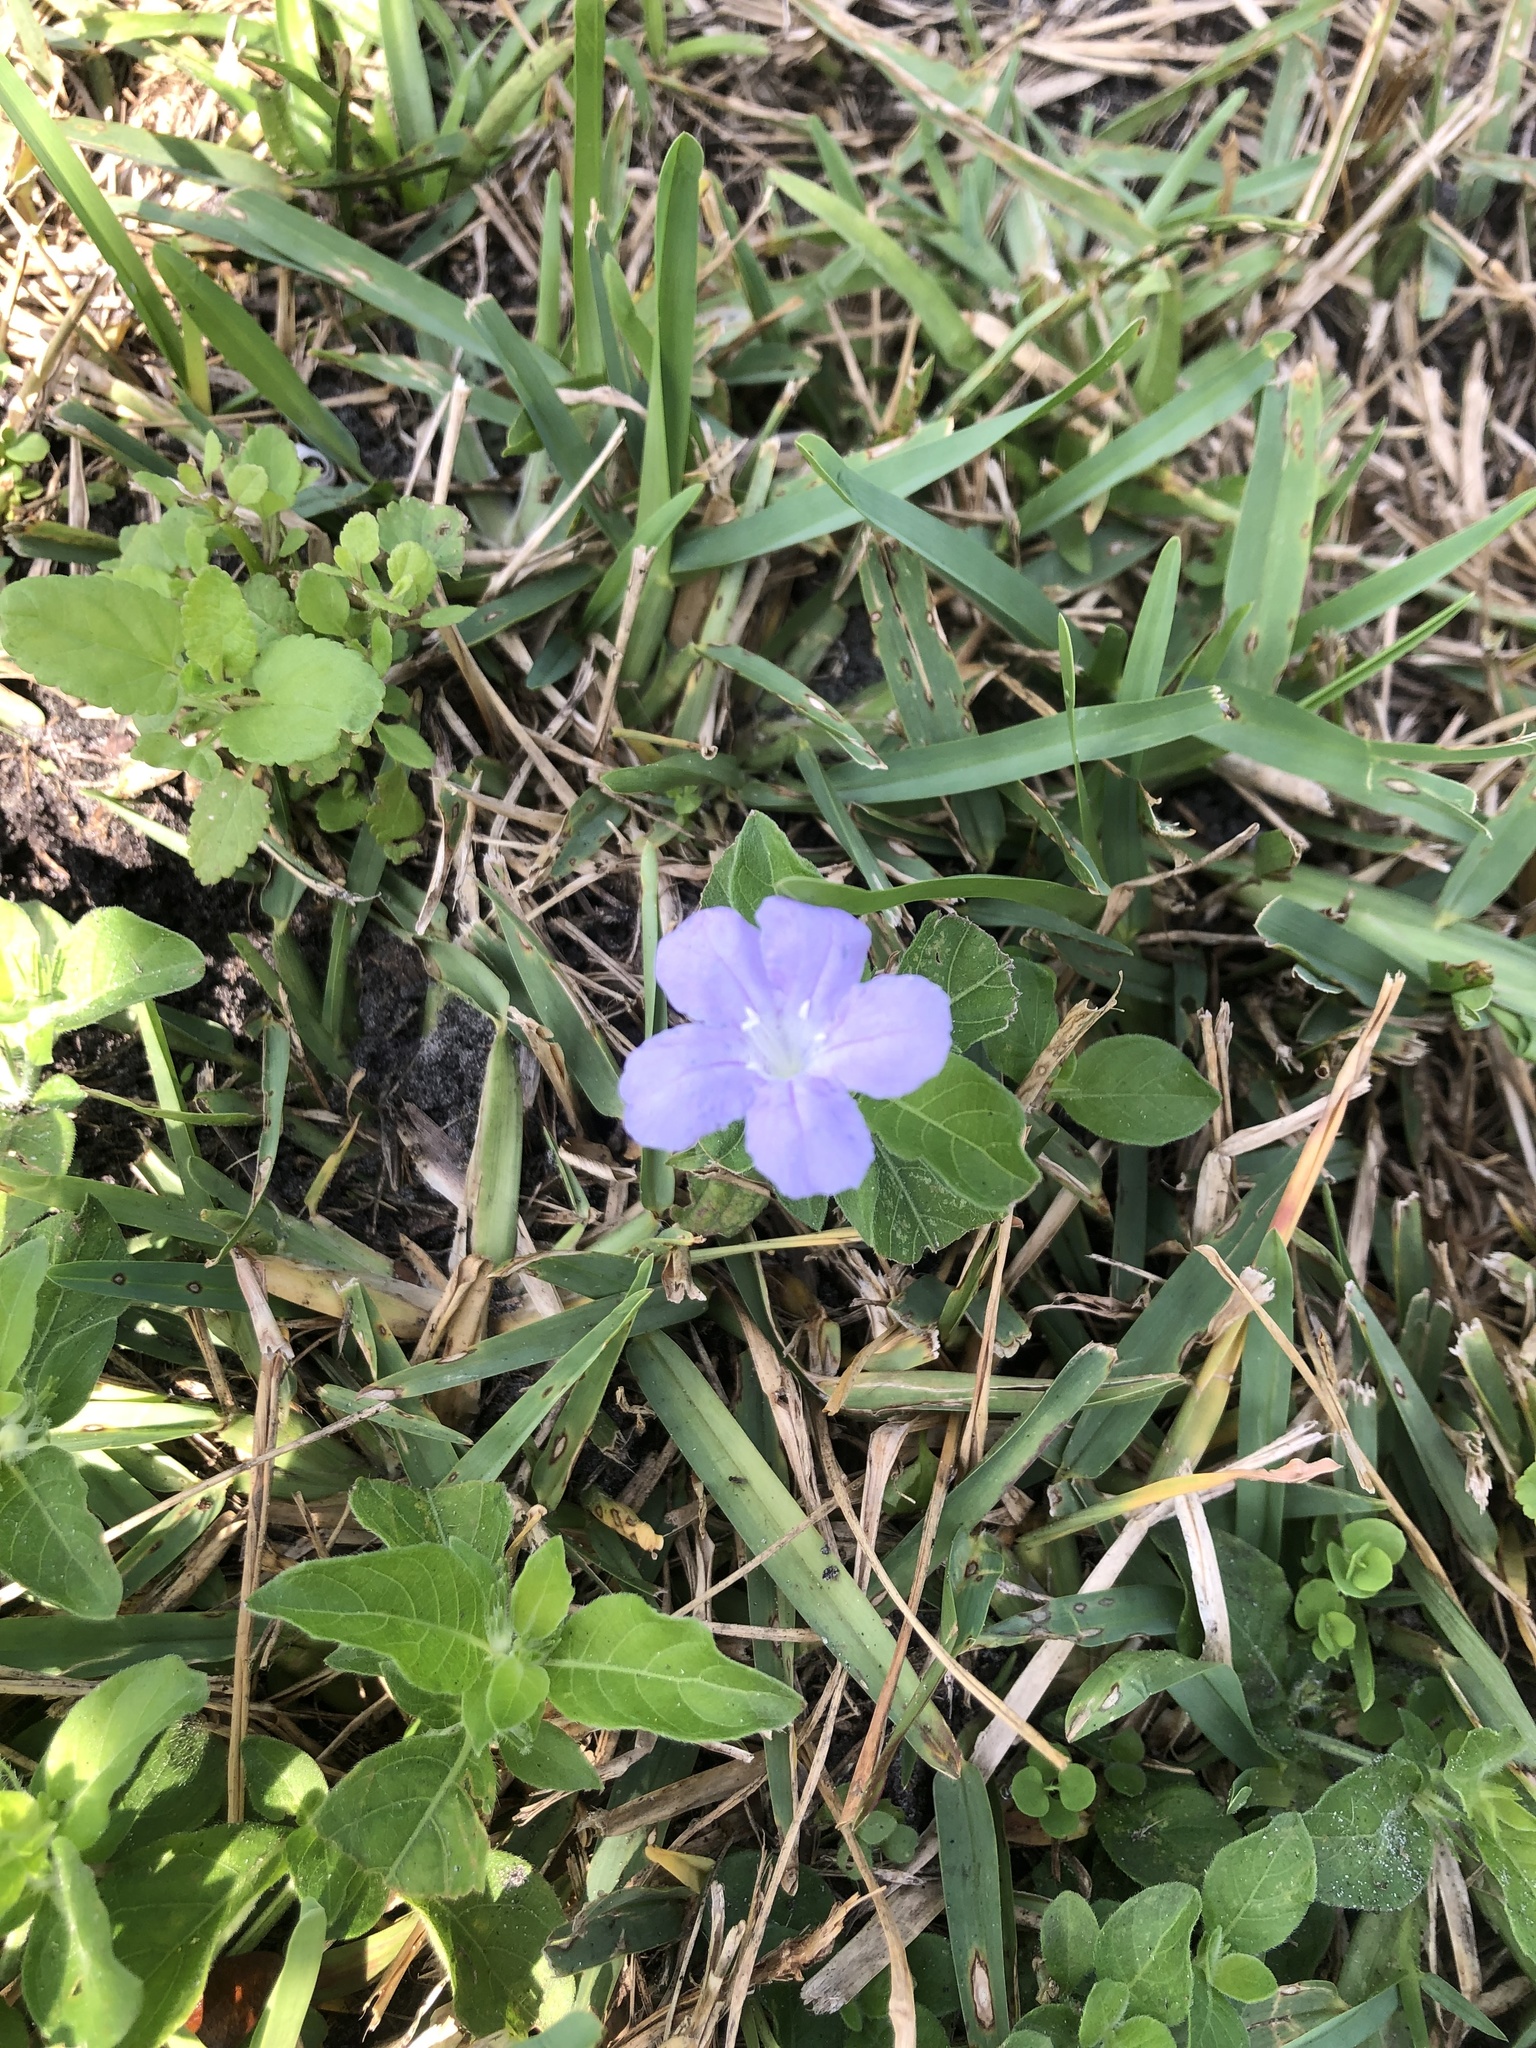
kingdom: Plantae
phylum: Tracheophyta
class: Magnoliopsida
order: Lamiales
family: Acanthaceae
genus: Ruellia
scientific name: Ruellia caroliniensis
